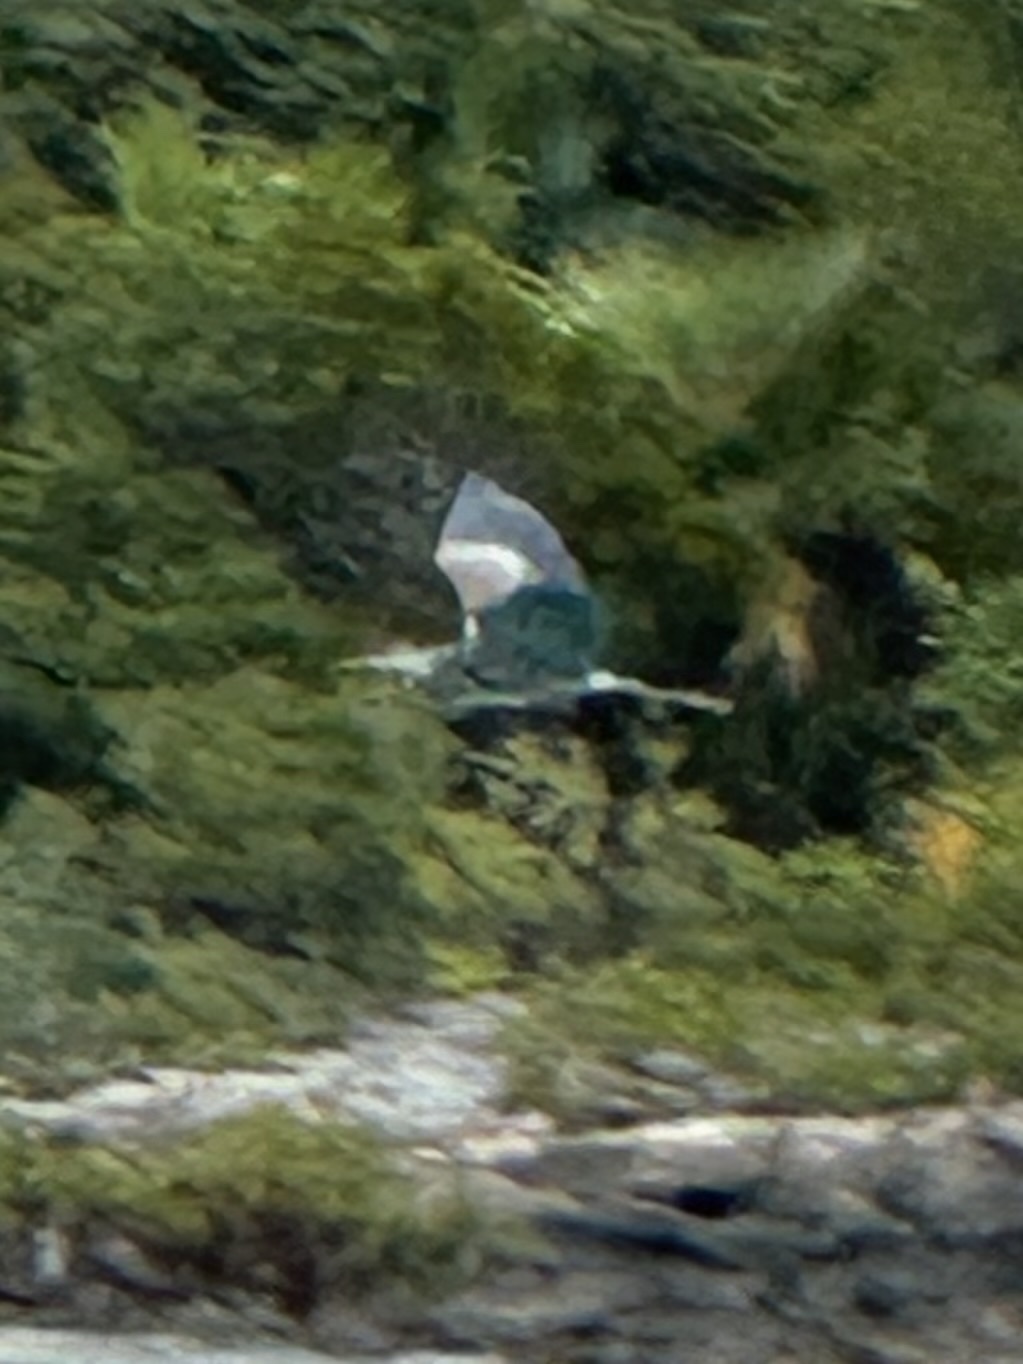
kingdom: Animalia
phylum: Chordata
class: Aves
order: Pelecaniformes
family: Ardeidae
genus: Ardea
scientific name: Ardea herodias
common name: Great blue heron
